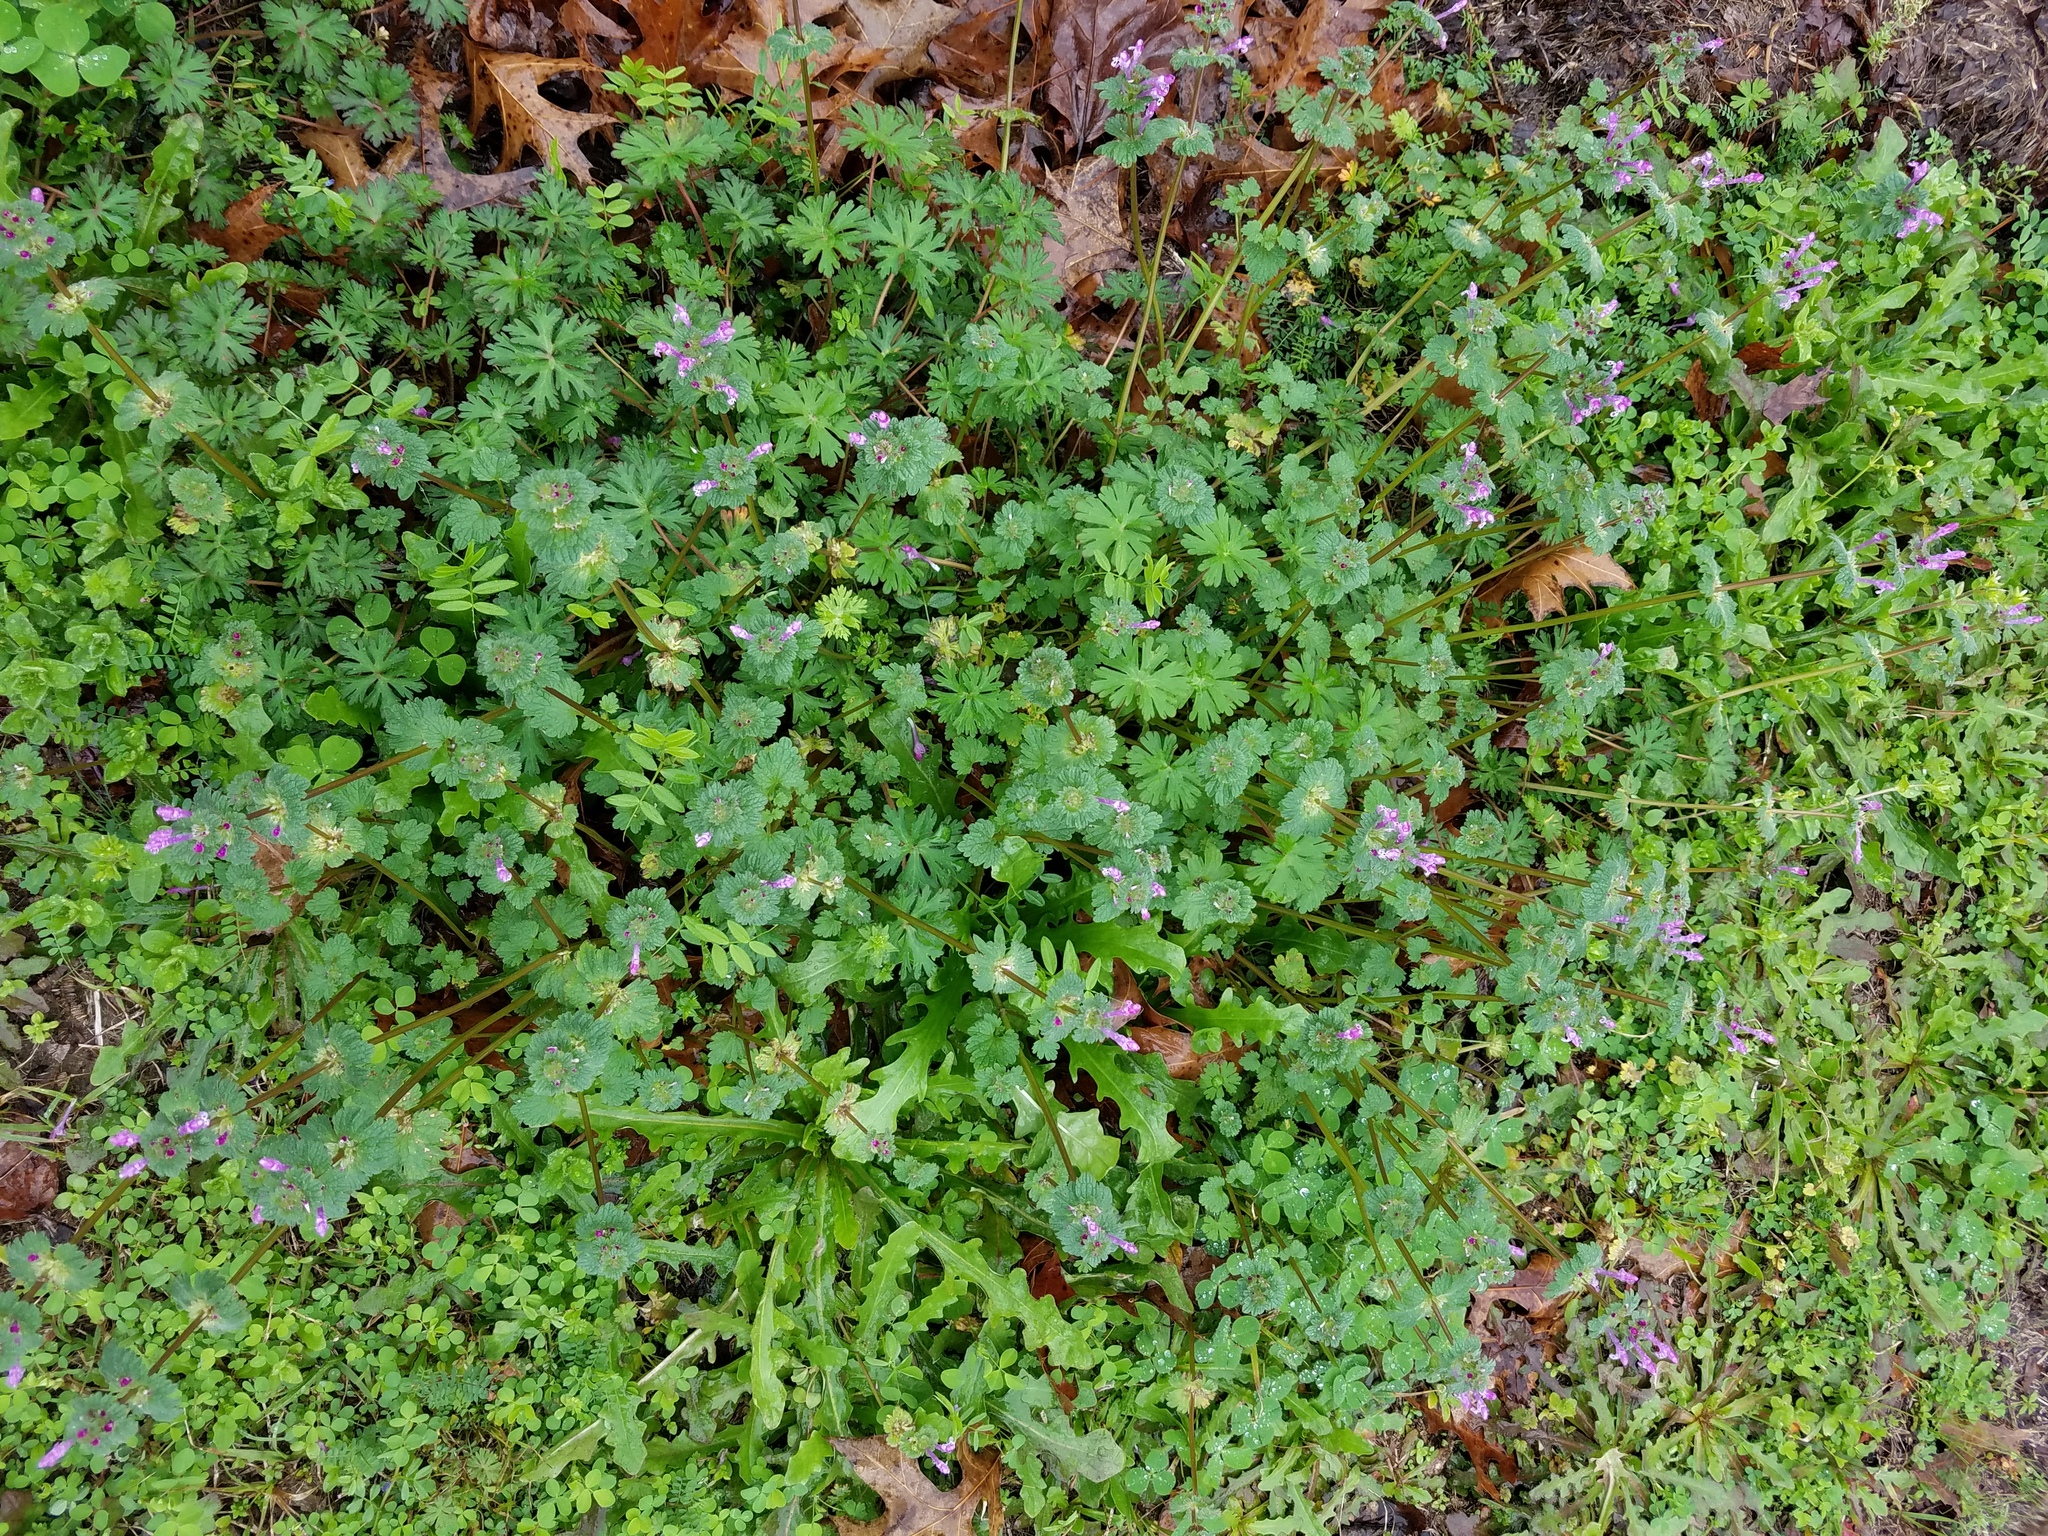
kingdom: Plantae
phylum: Tracheophyta
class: Magnoliopsida
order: Lamiales
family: Lamiaceae
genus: Lamium
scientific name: Lamium amplexicaule
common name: Henbit dead-nettle
